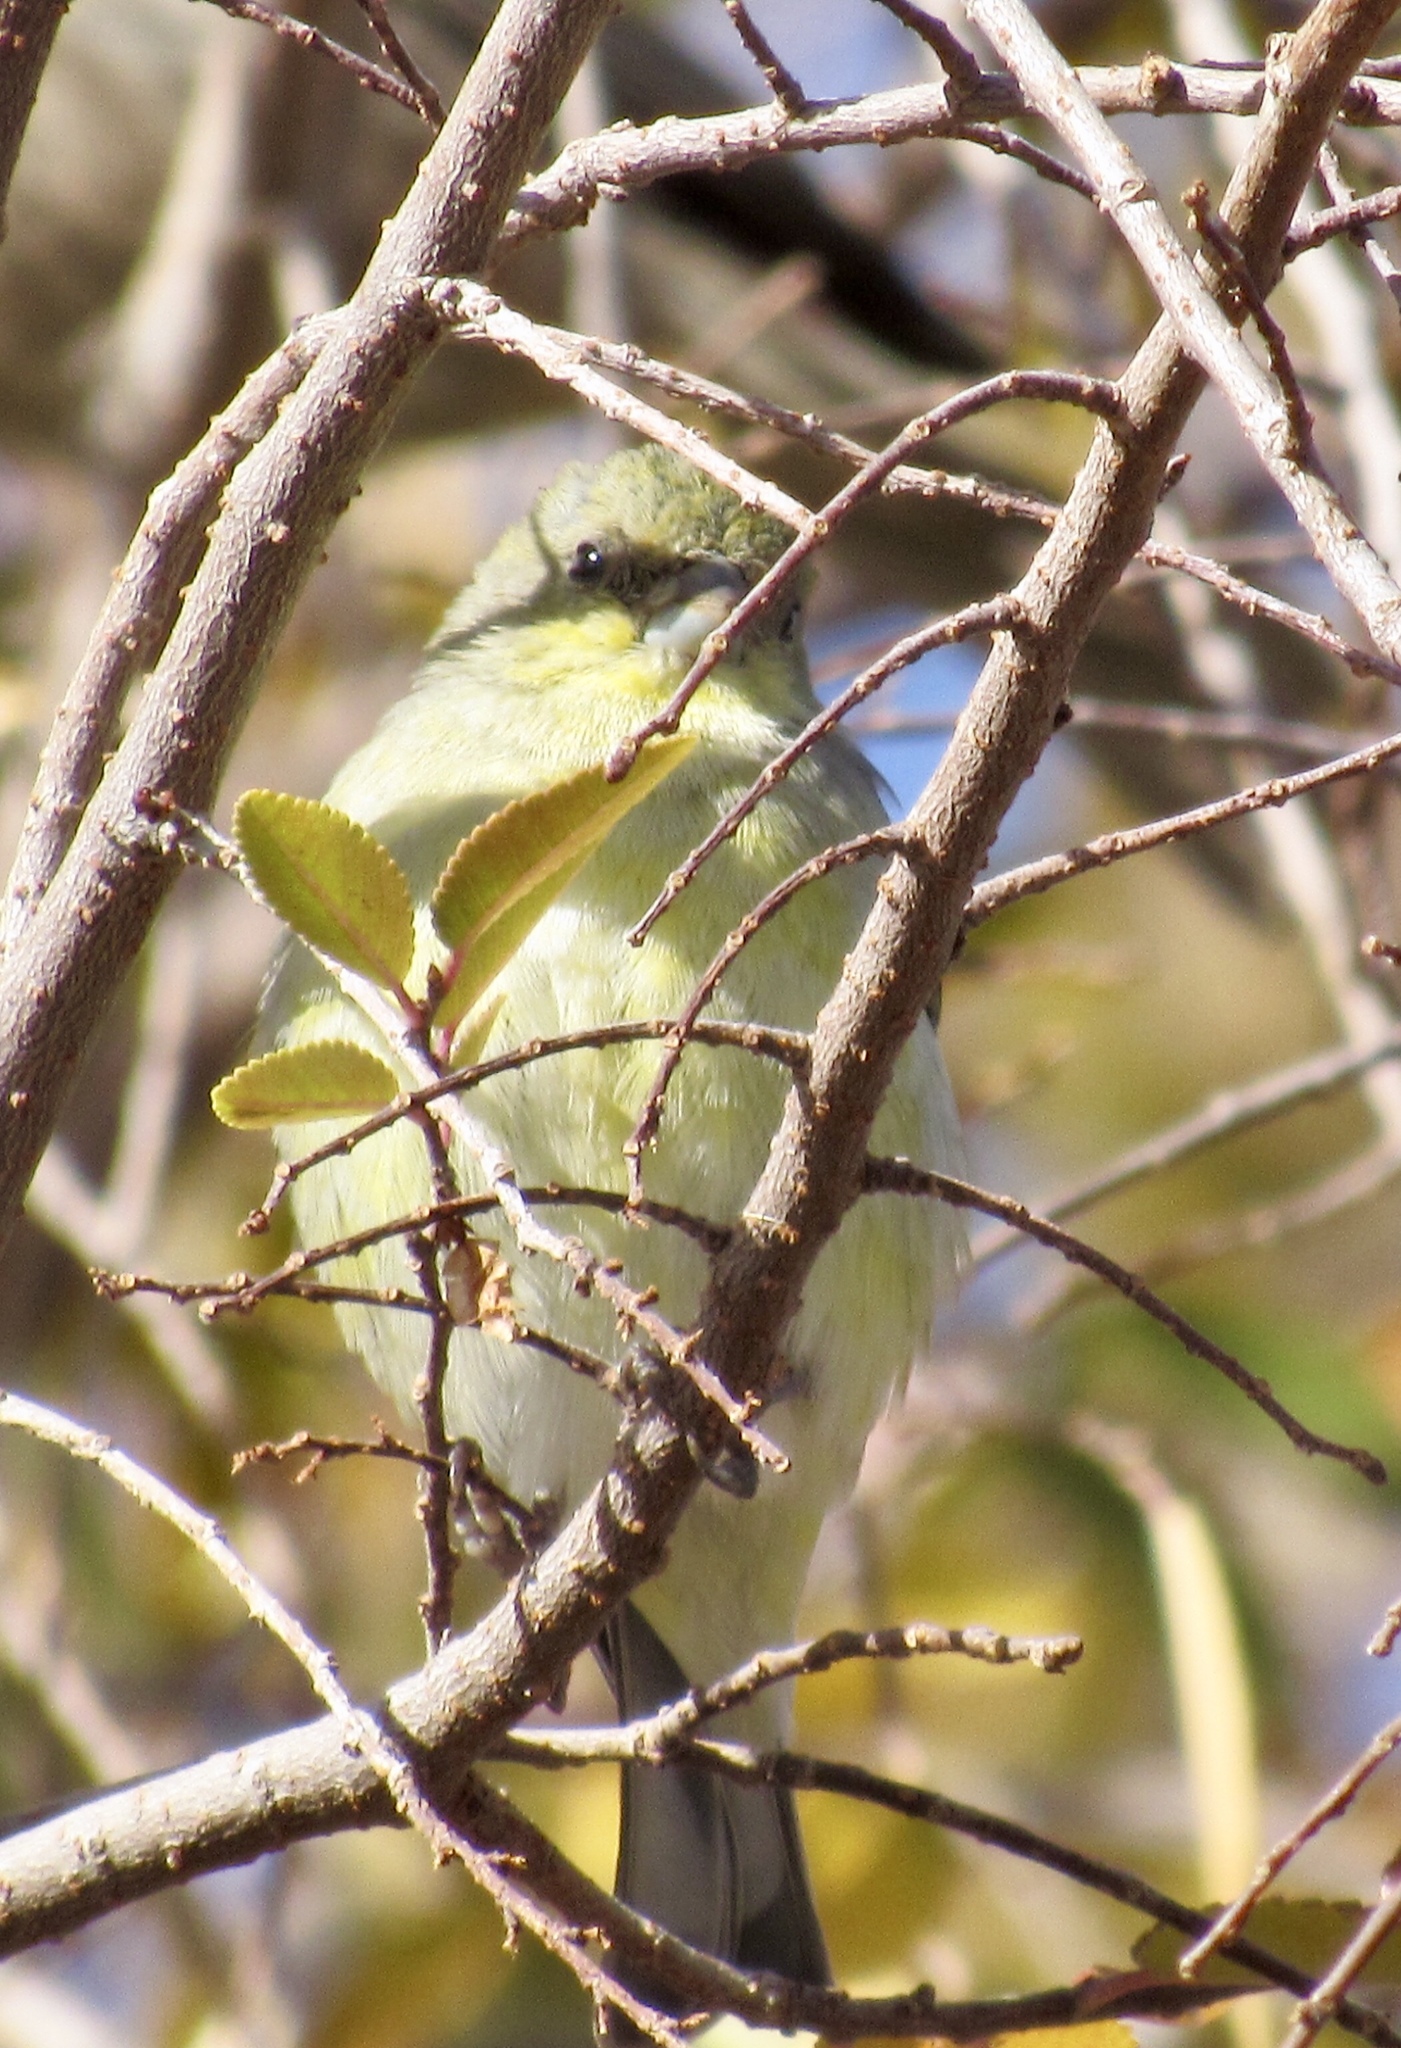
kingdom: Animalia
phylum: Chordata
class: Aves
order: Passeriformes
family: Fringillidae
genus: Spinus
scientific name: Spinus psaltria
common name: Lesser goldfinch
